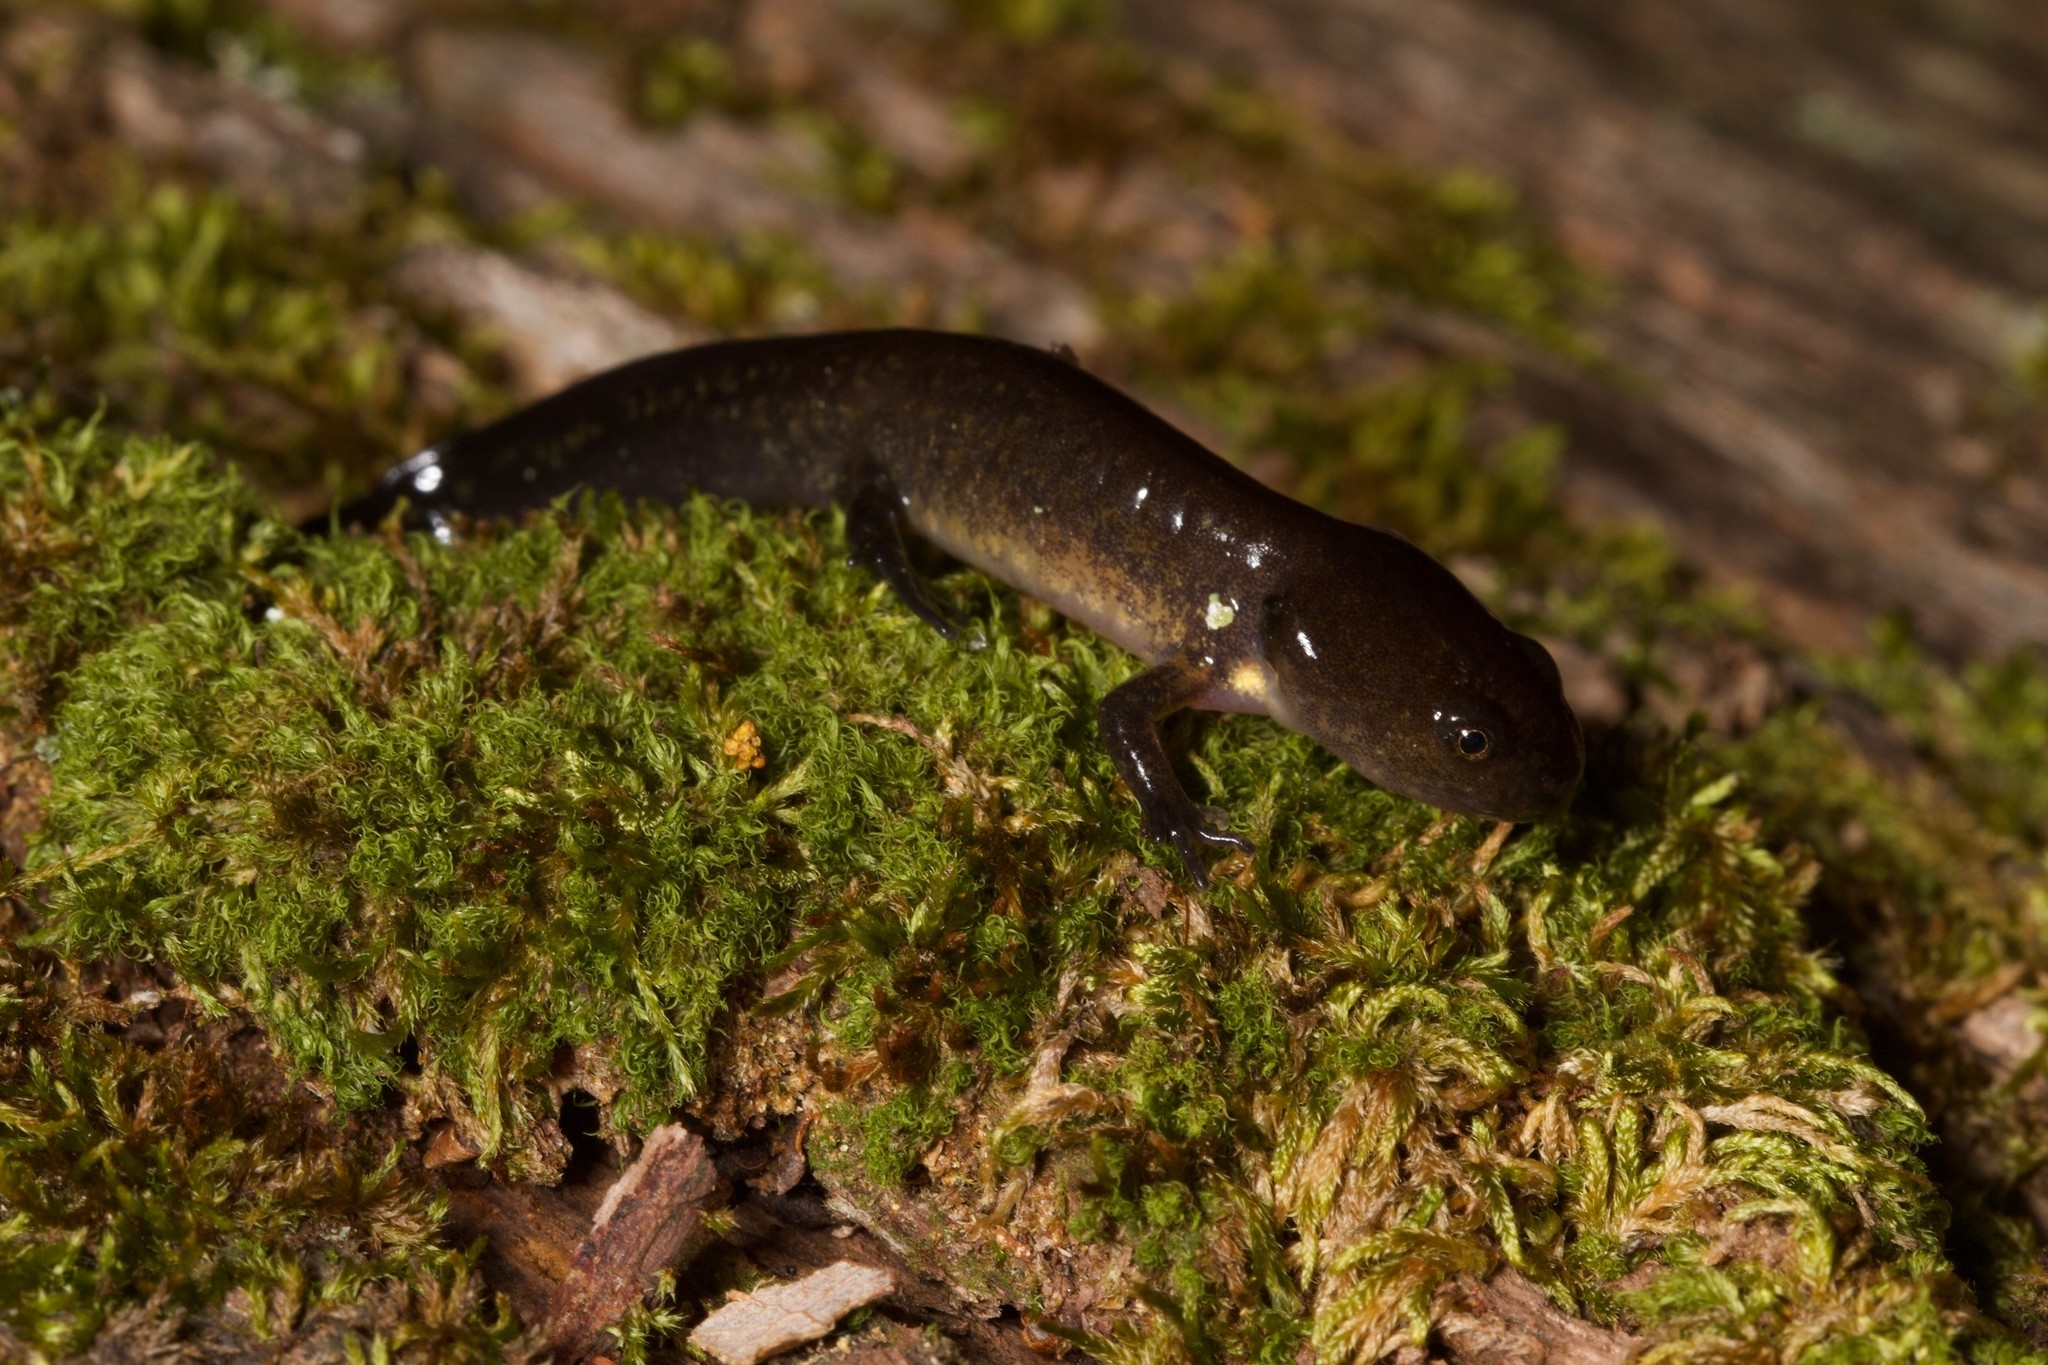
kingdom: Animalia
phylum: Chordata
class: Amphibia
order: Caudata
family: Ambystomatidae
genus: Ambystoma
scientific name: Ambystoma jeffersonianum
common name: Jefferson salamander
